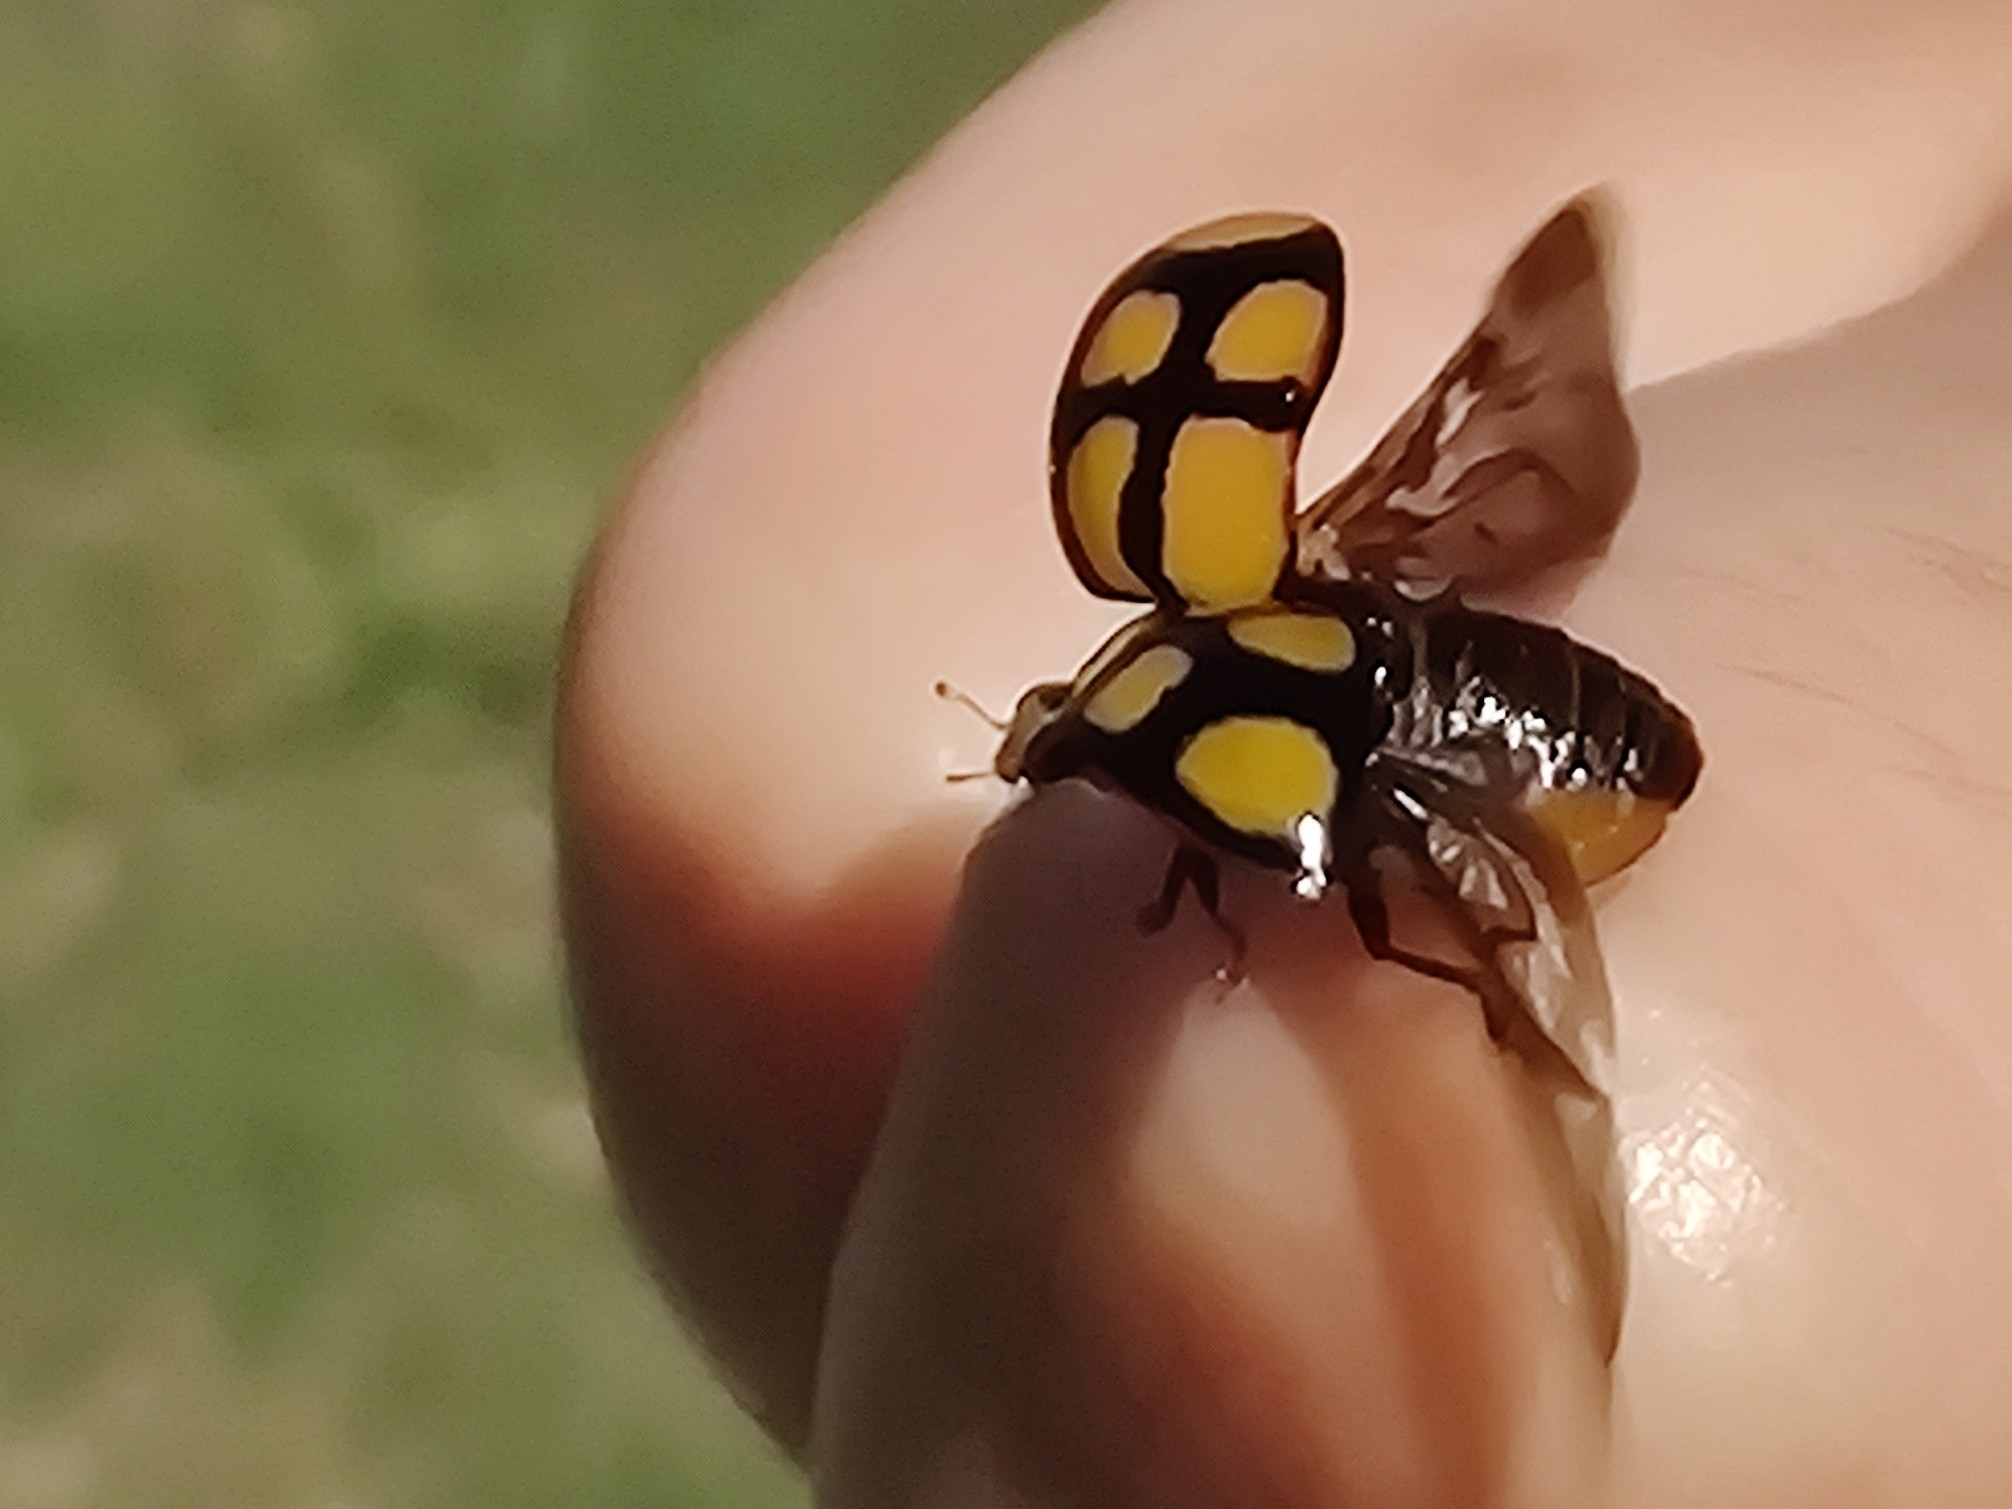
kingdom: Animalia
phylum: Arthropoda
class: Insecta
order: Coleoptera
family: Coccinellidae
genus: Harmonia
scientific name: Harmonia
